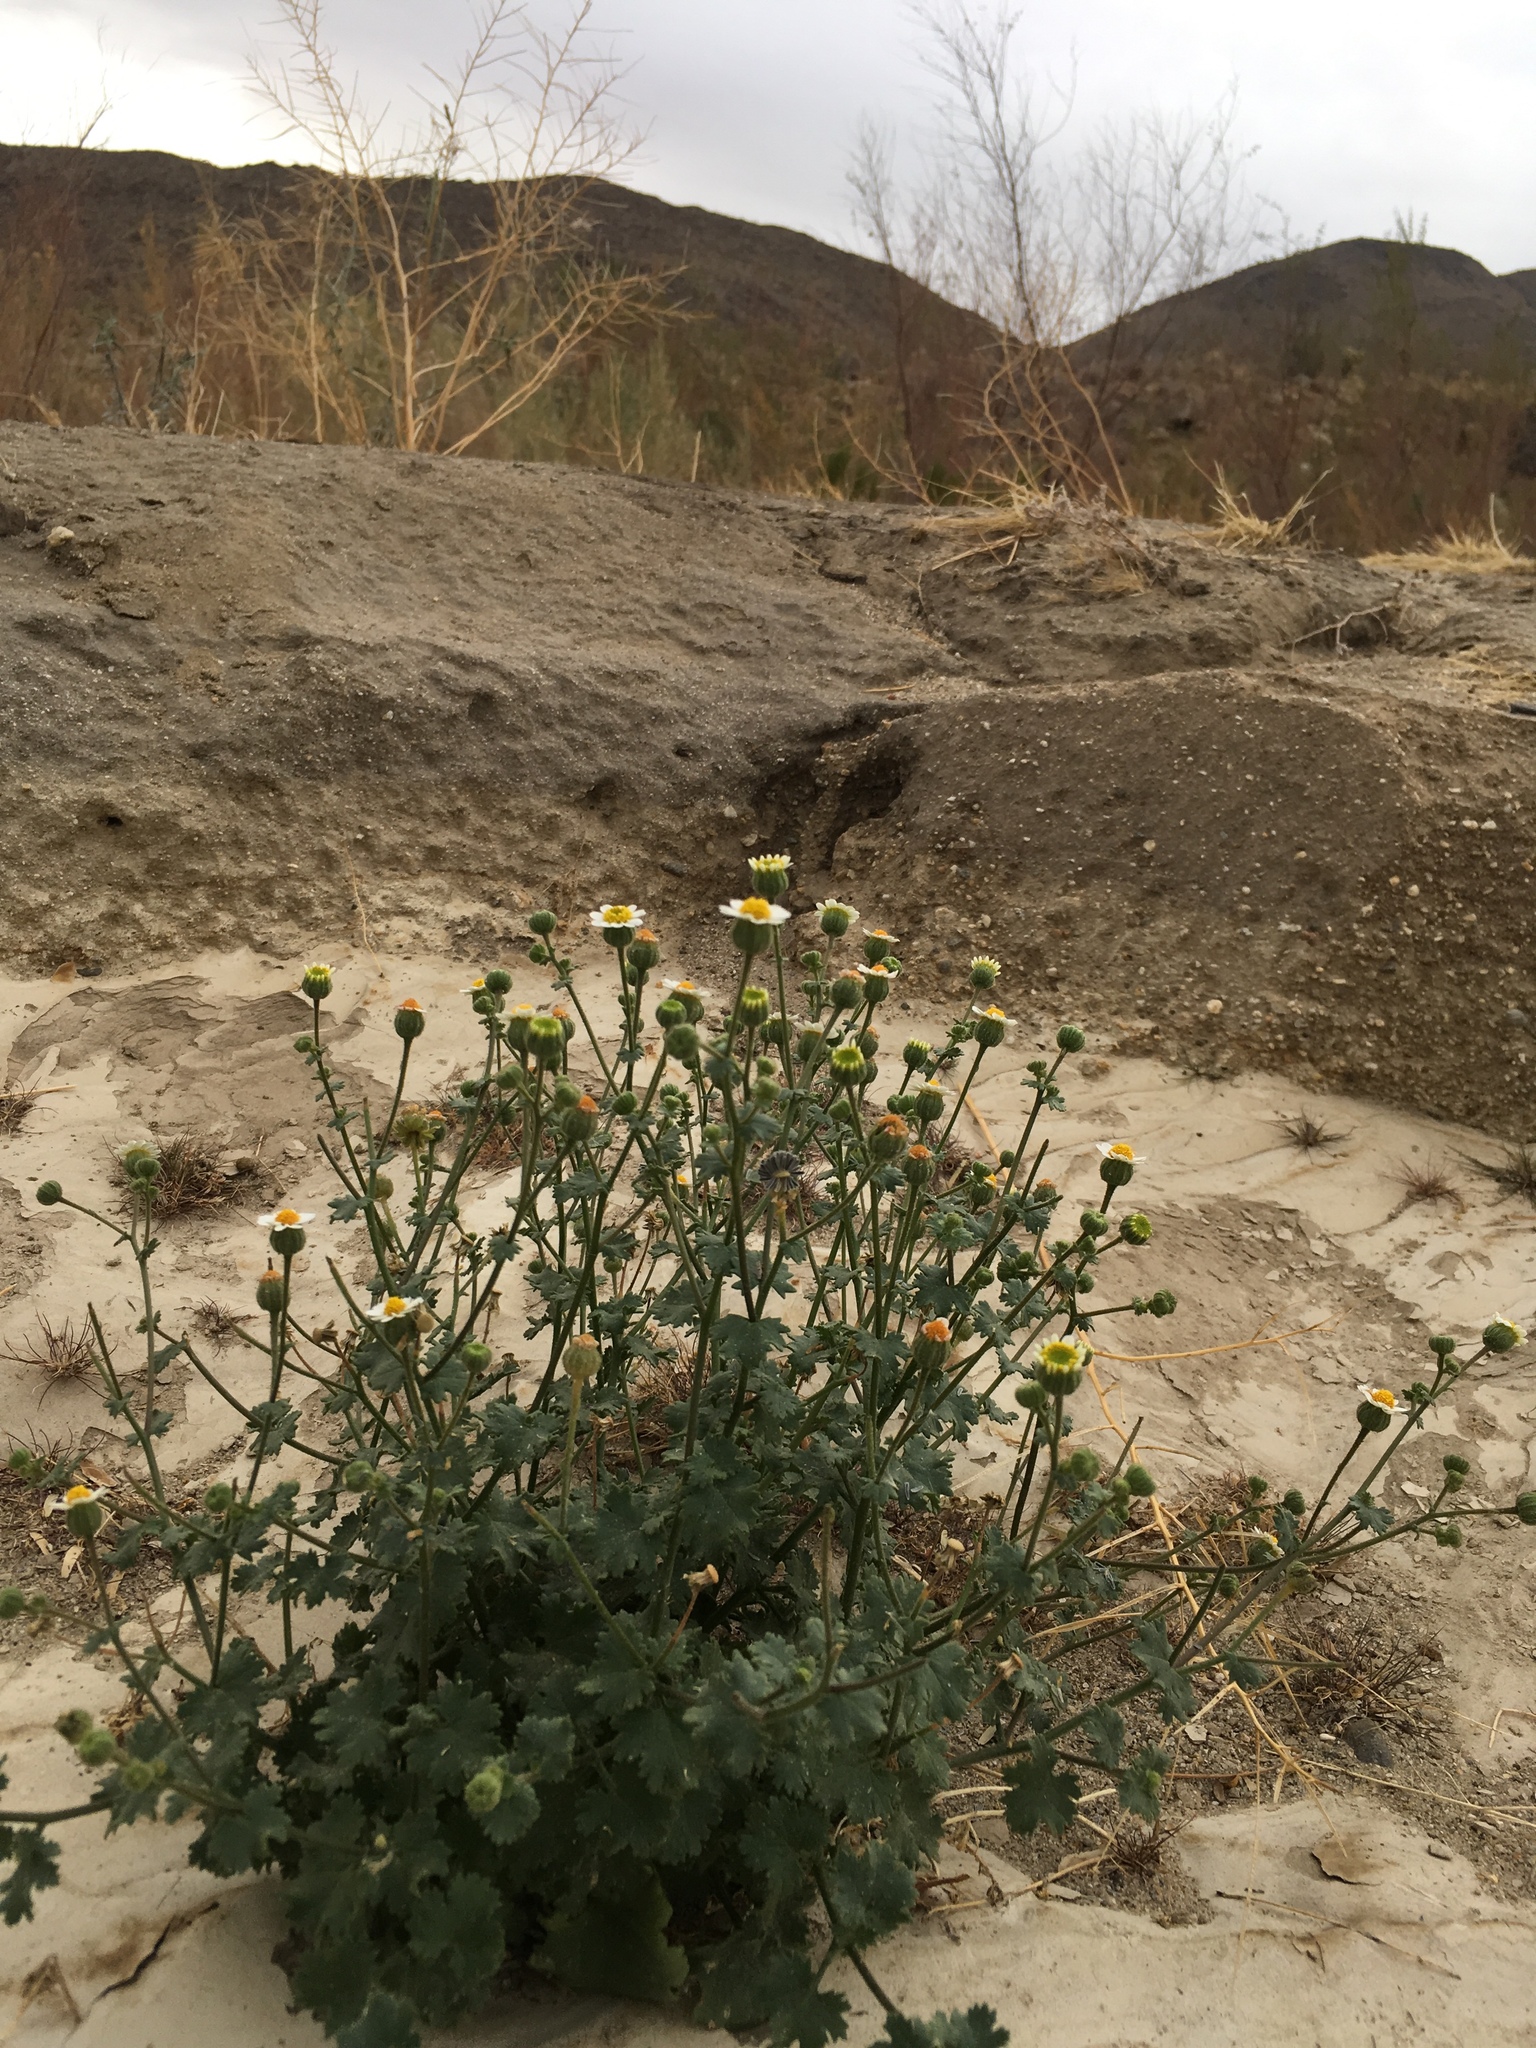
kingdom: Plantae
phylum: Tracheophyta
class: Magnoliopsida
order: Asterales
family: Asteraceae
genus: Laphamia
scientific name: Laphamia emoryi
